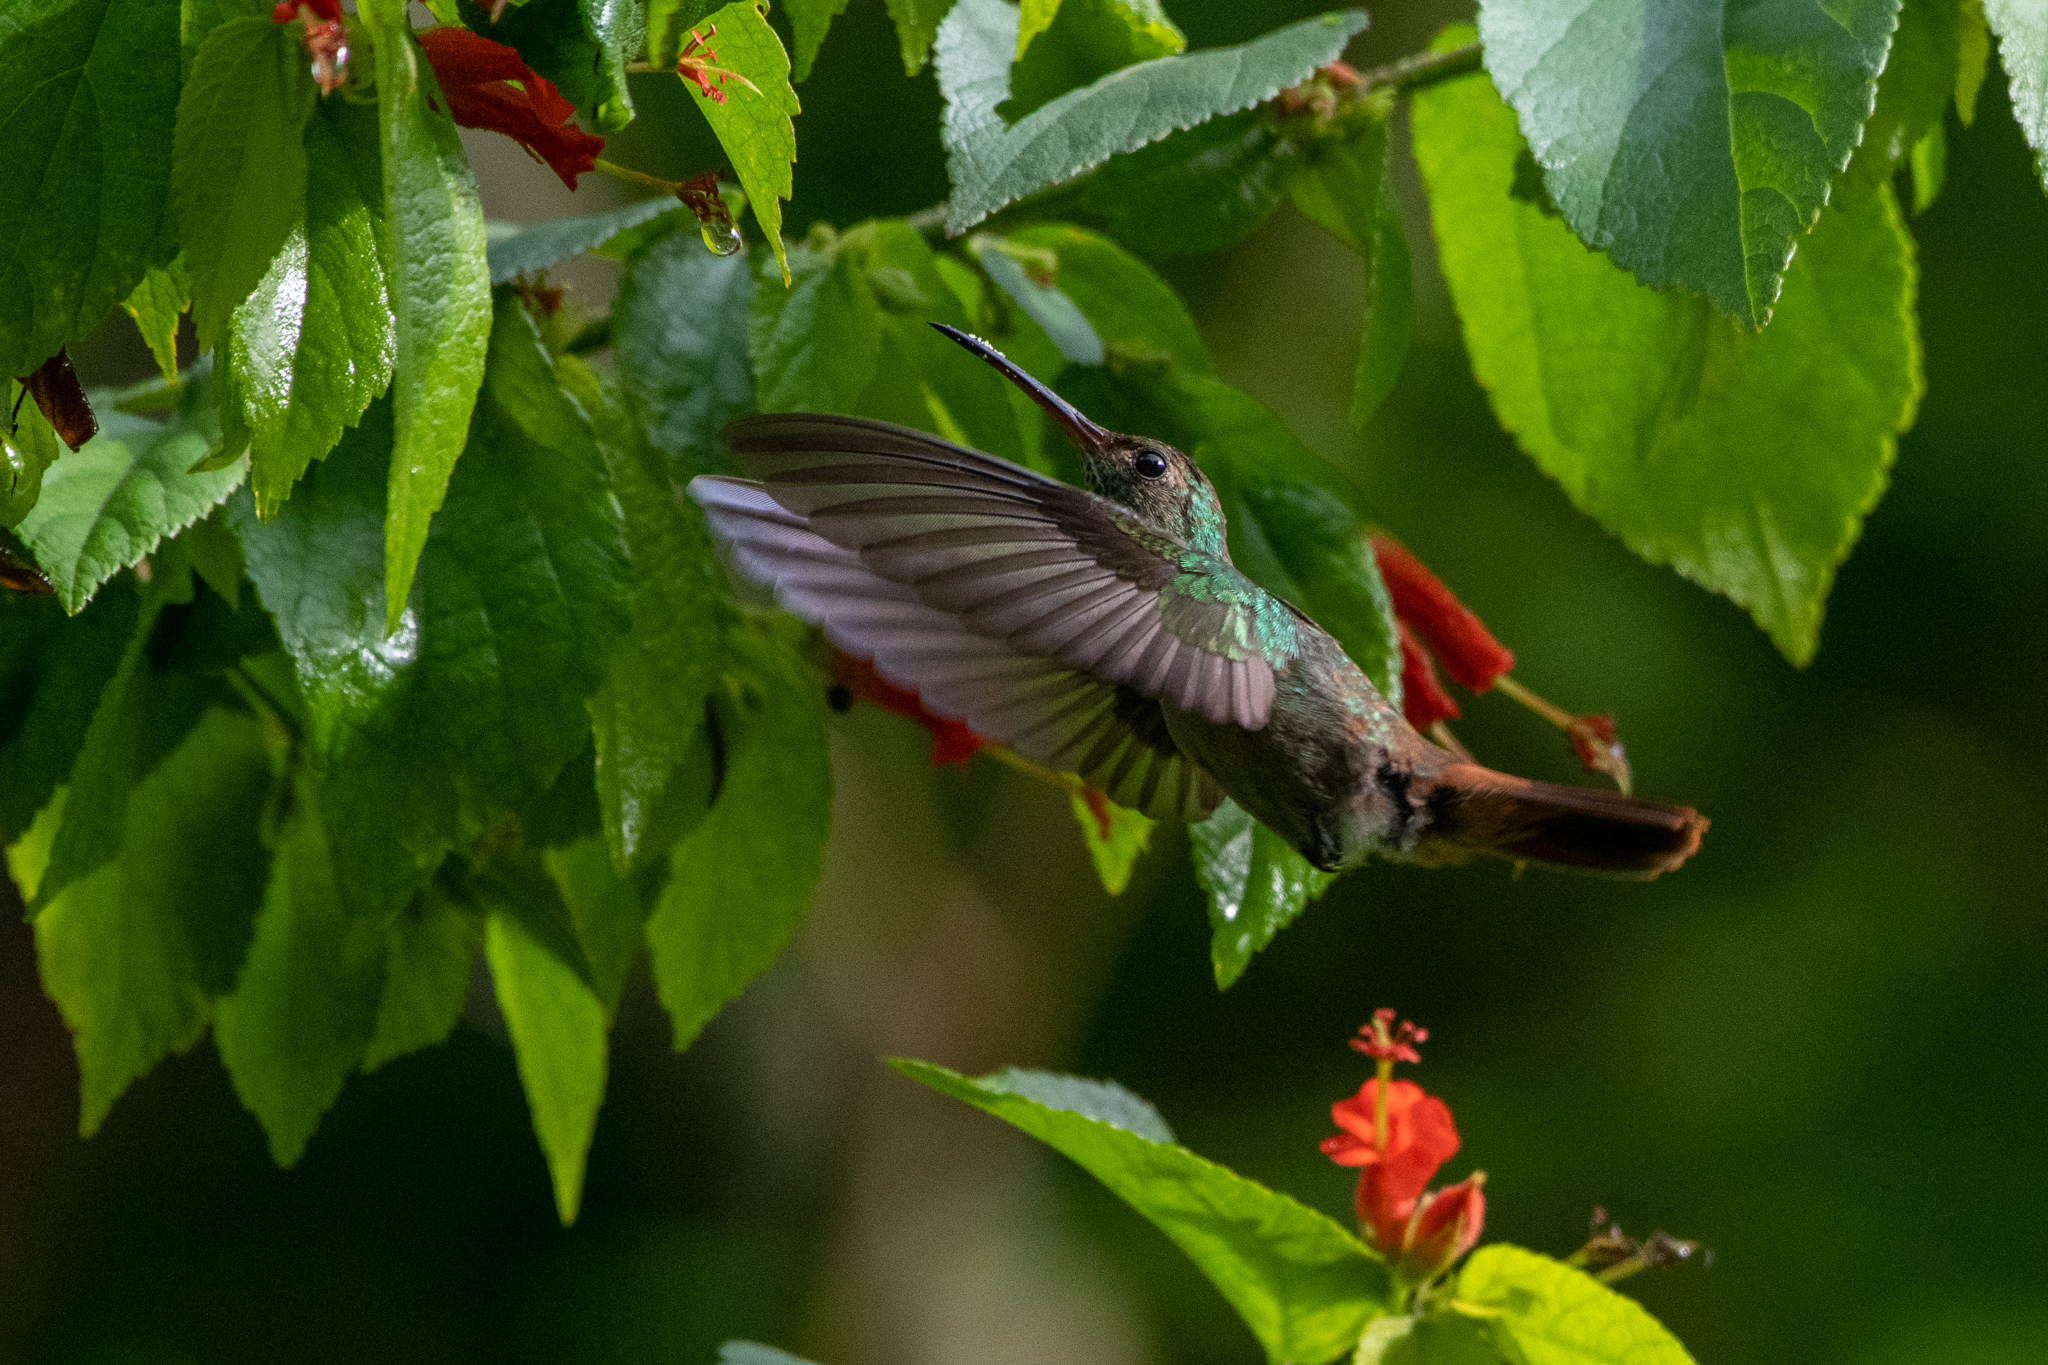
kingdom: Animalia
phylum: Chordata
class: Aves
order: Apodiformes
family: Trochilidae
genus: Amazilia
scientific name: Amazilia tzacatl
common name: Rufous-tailed hummingbird
